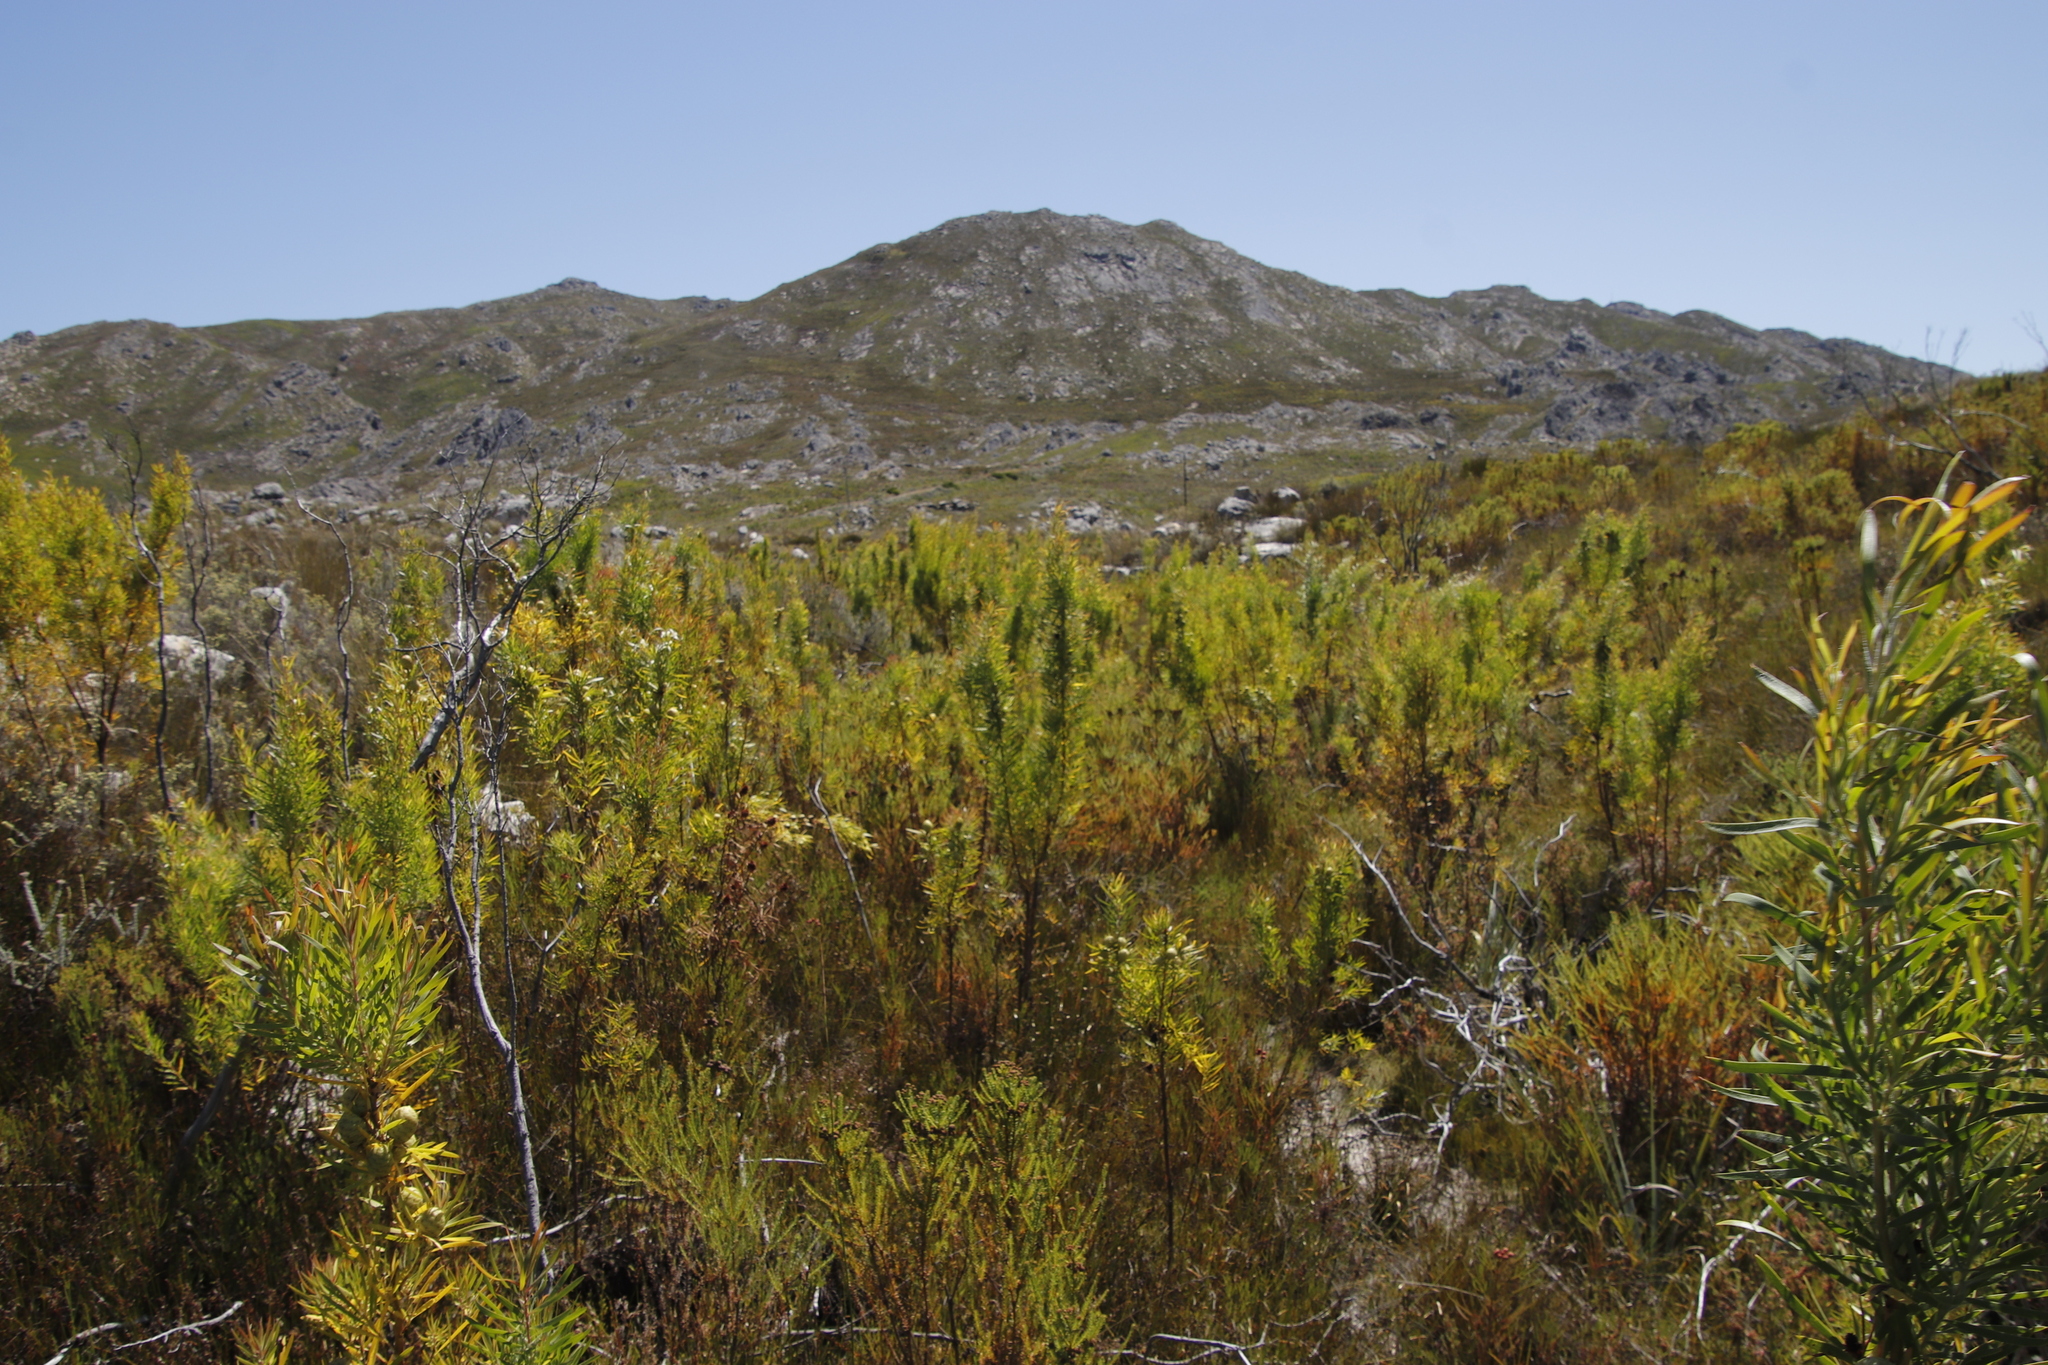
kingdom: Plantae
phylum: Tracheophyta
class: Magnoliopsida
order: Proteales
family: Proteaceae
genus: Leucadendron
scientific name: Leucadendron salicifolium
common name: Common stream conebush
